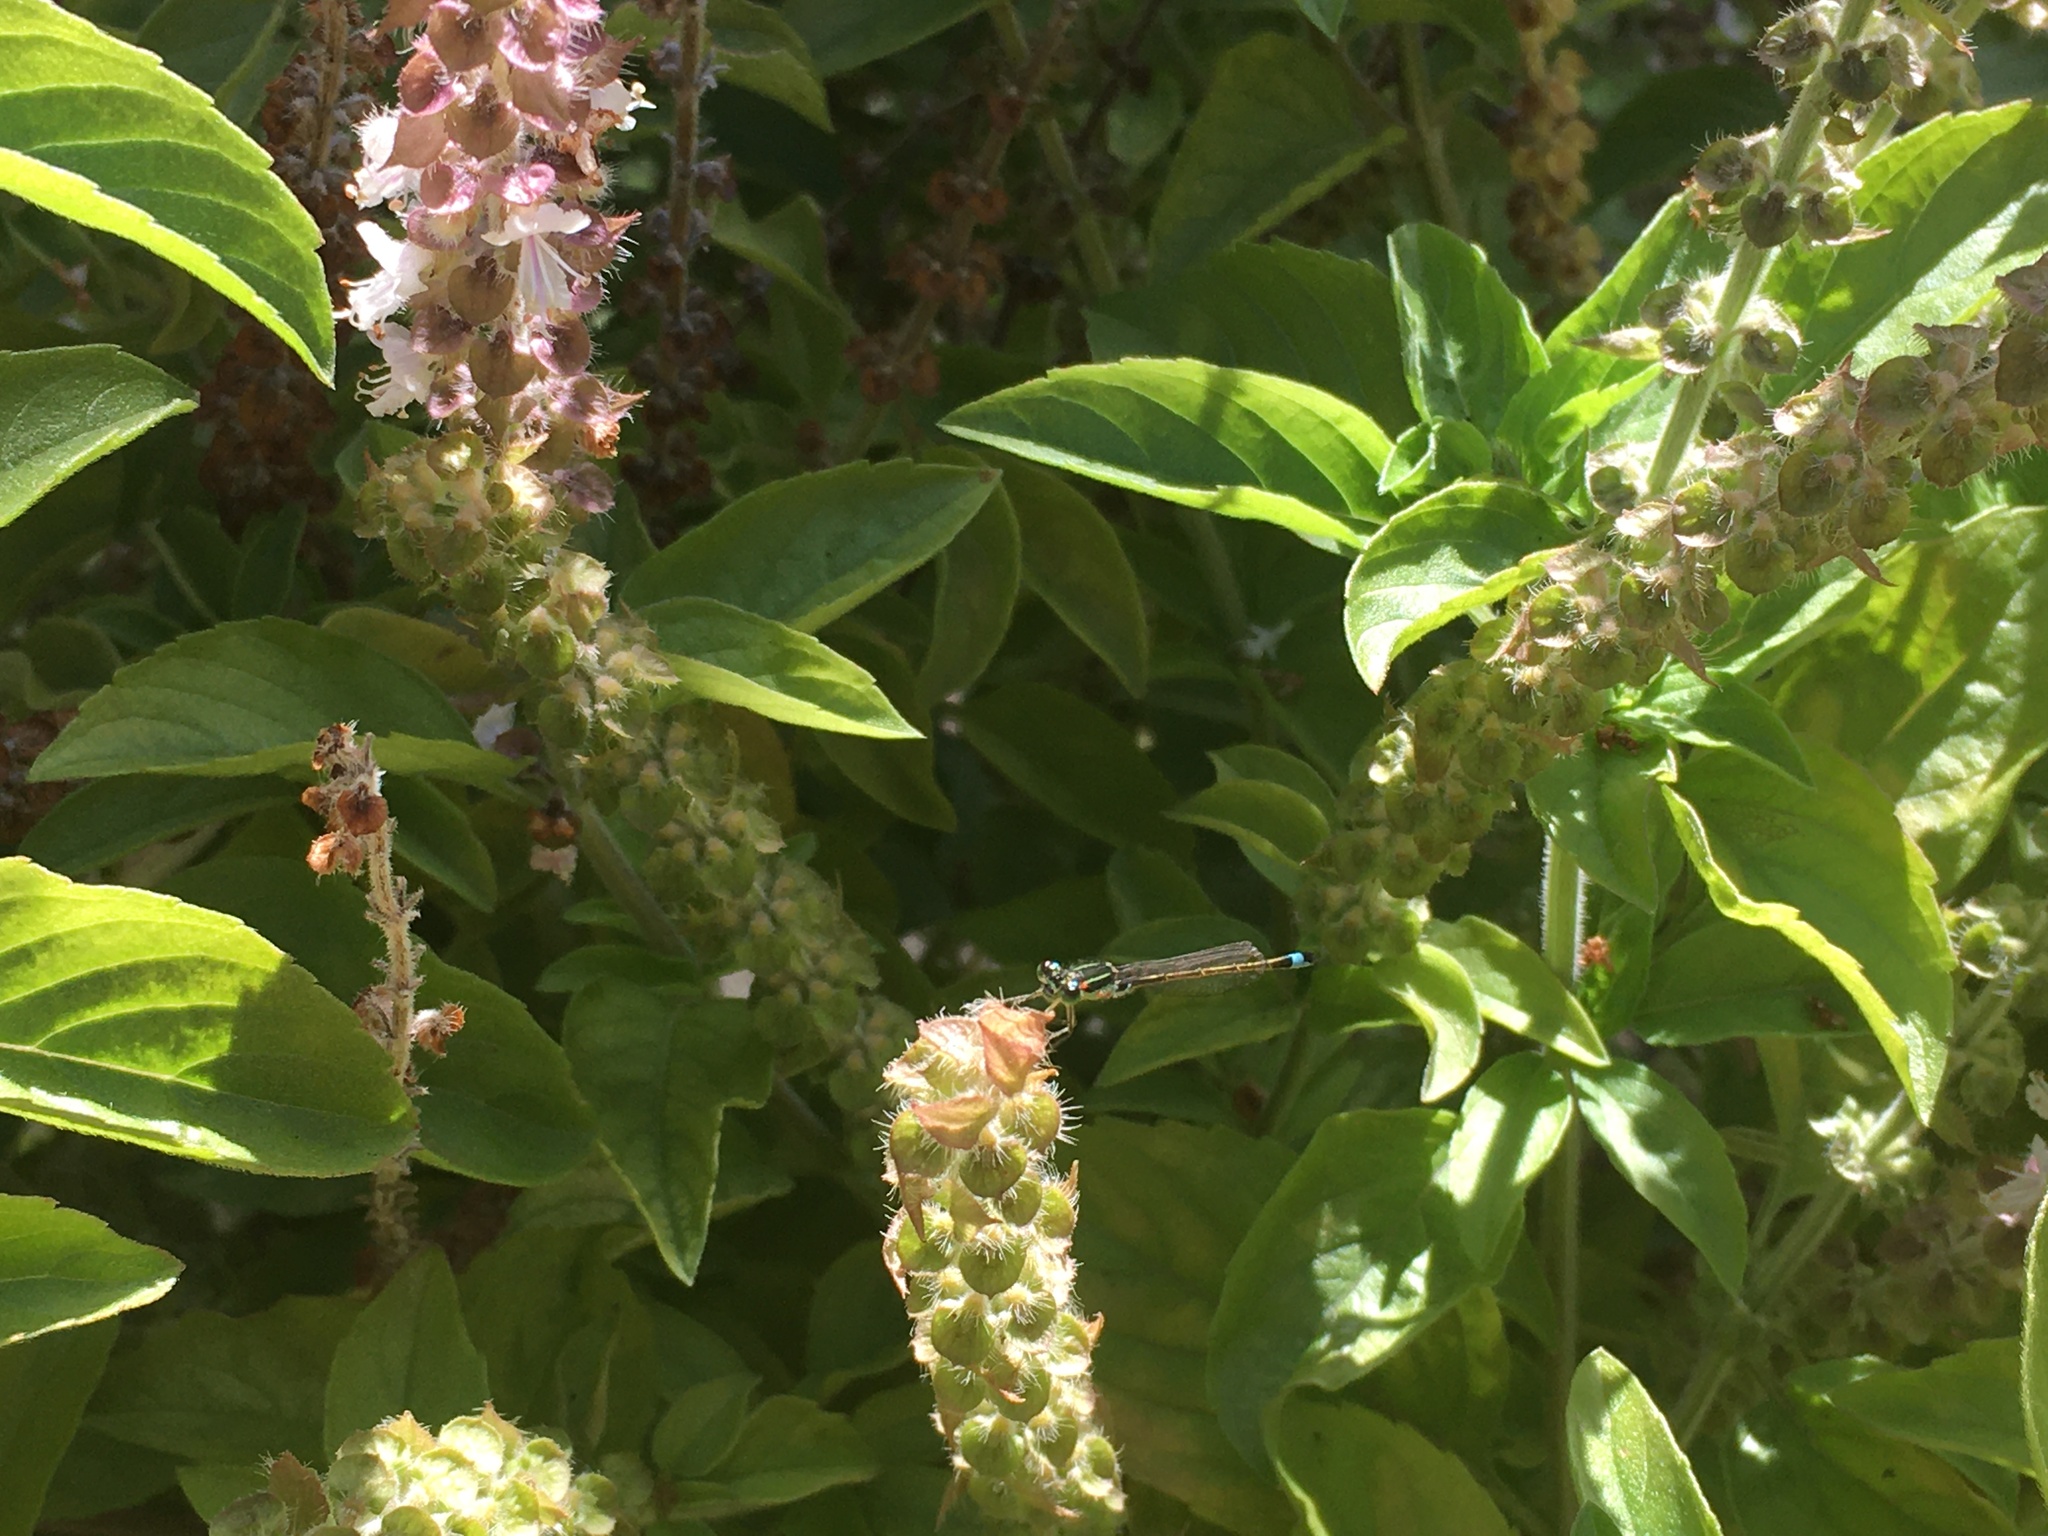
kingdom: Animalia
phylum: Arthropoda
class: Insecta
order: Odonata
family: Coenagrionidae
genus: Ischnura
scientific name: Ischnura senegalensis
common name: Tropical bluetail
